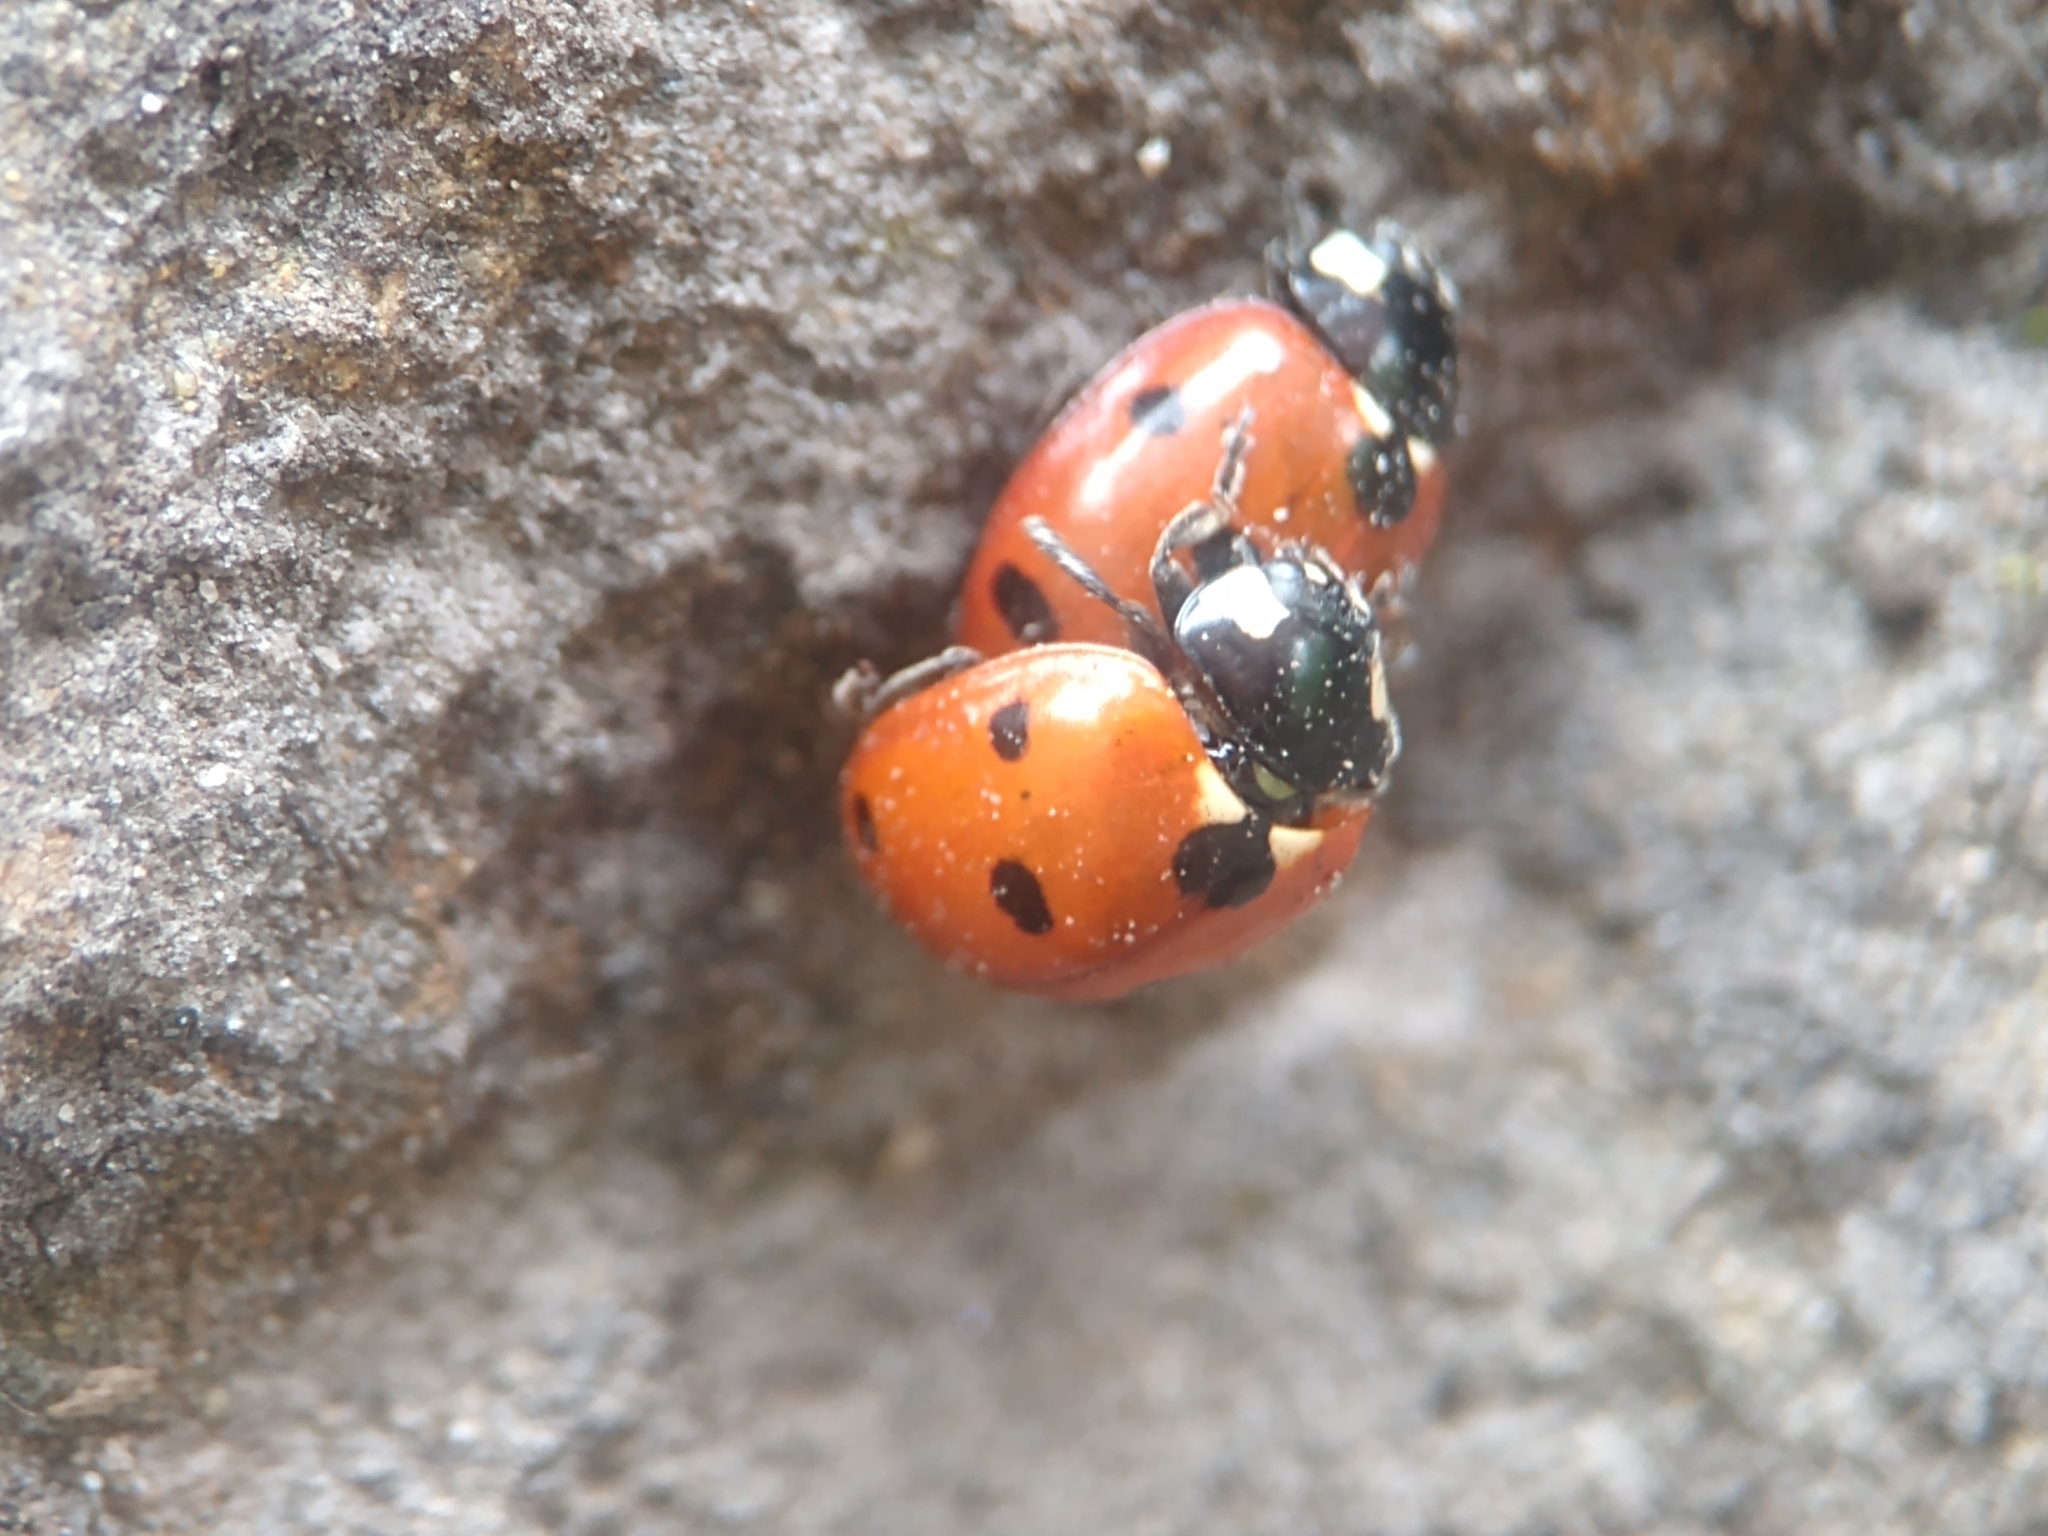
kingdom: Animalia
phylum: Arthropoda
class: Insecta
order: Coleoptera
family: Coccinellidae
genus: Coccinella
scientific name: Coccinella septempunctata
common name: Sevenspotted lady beetle
